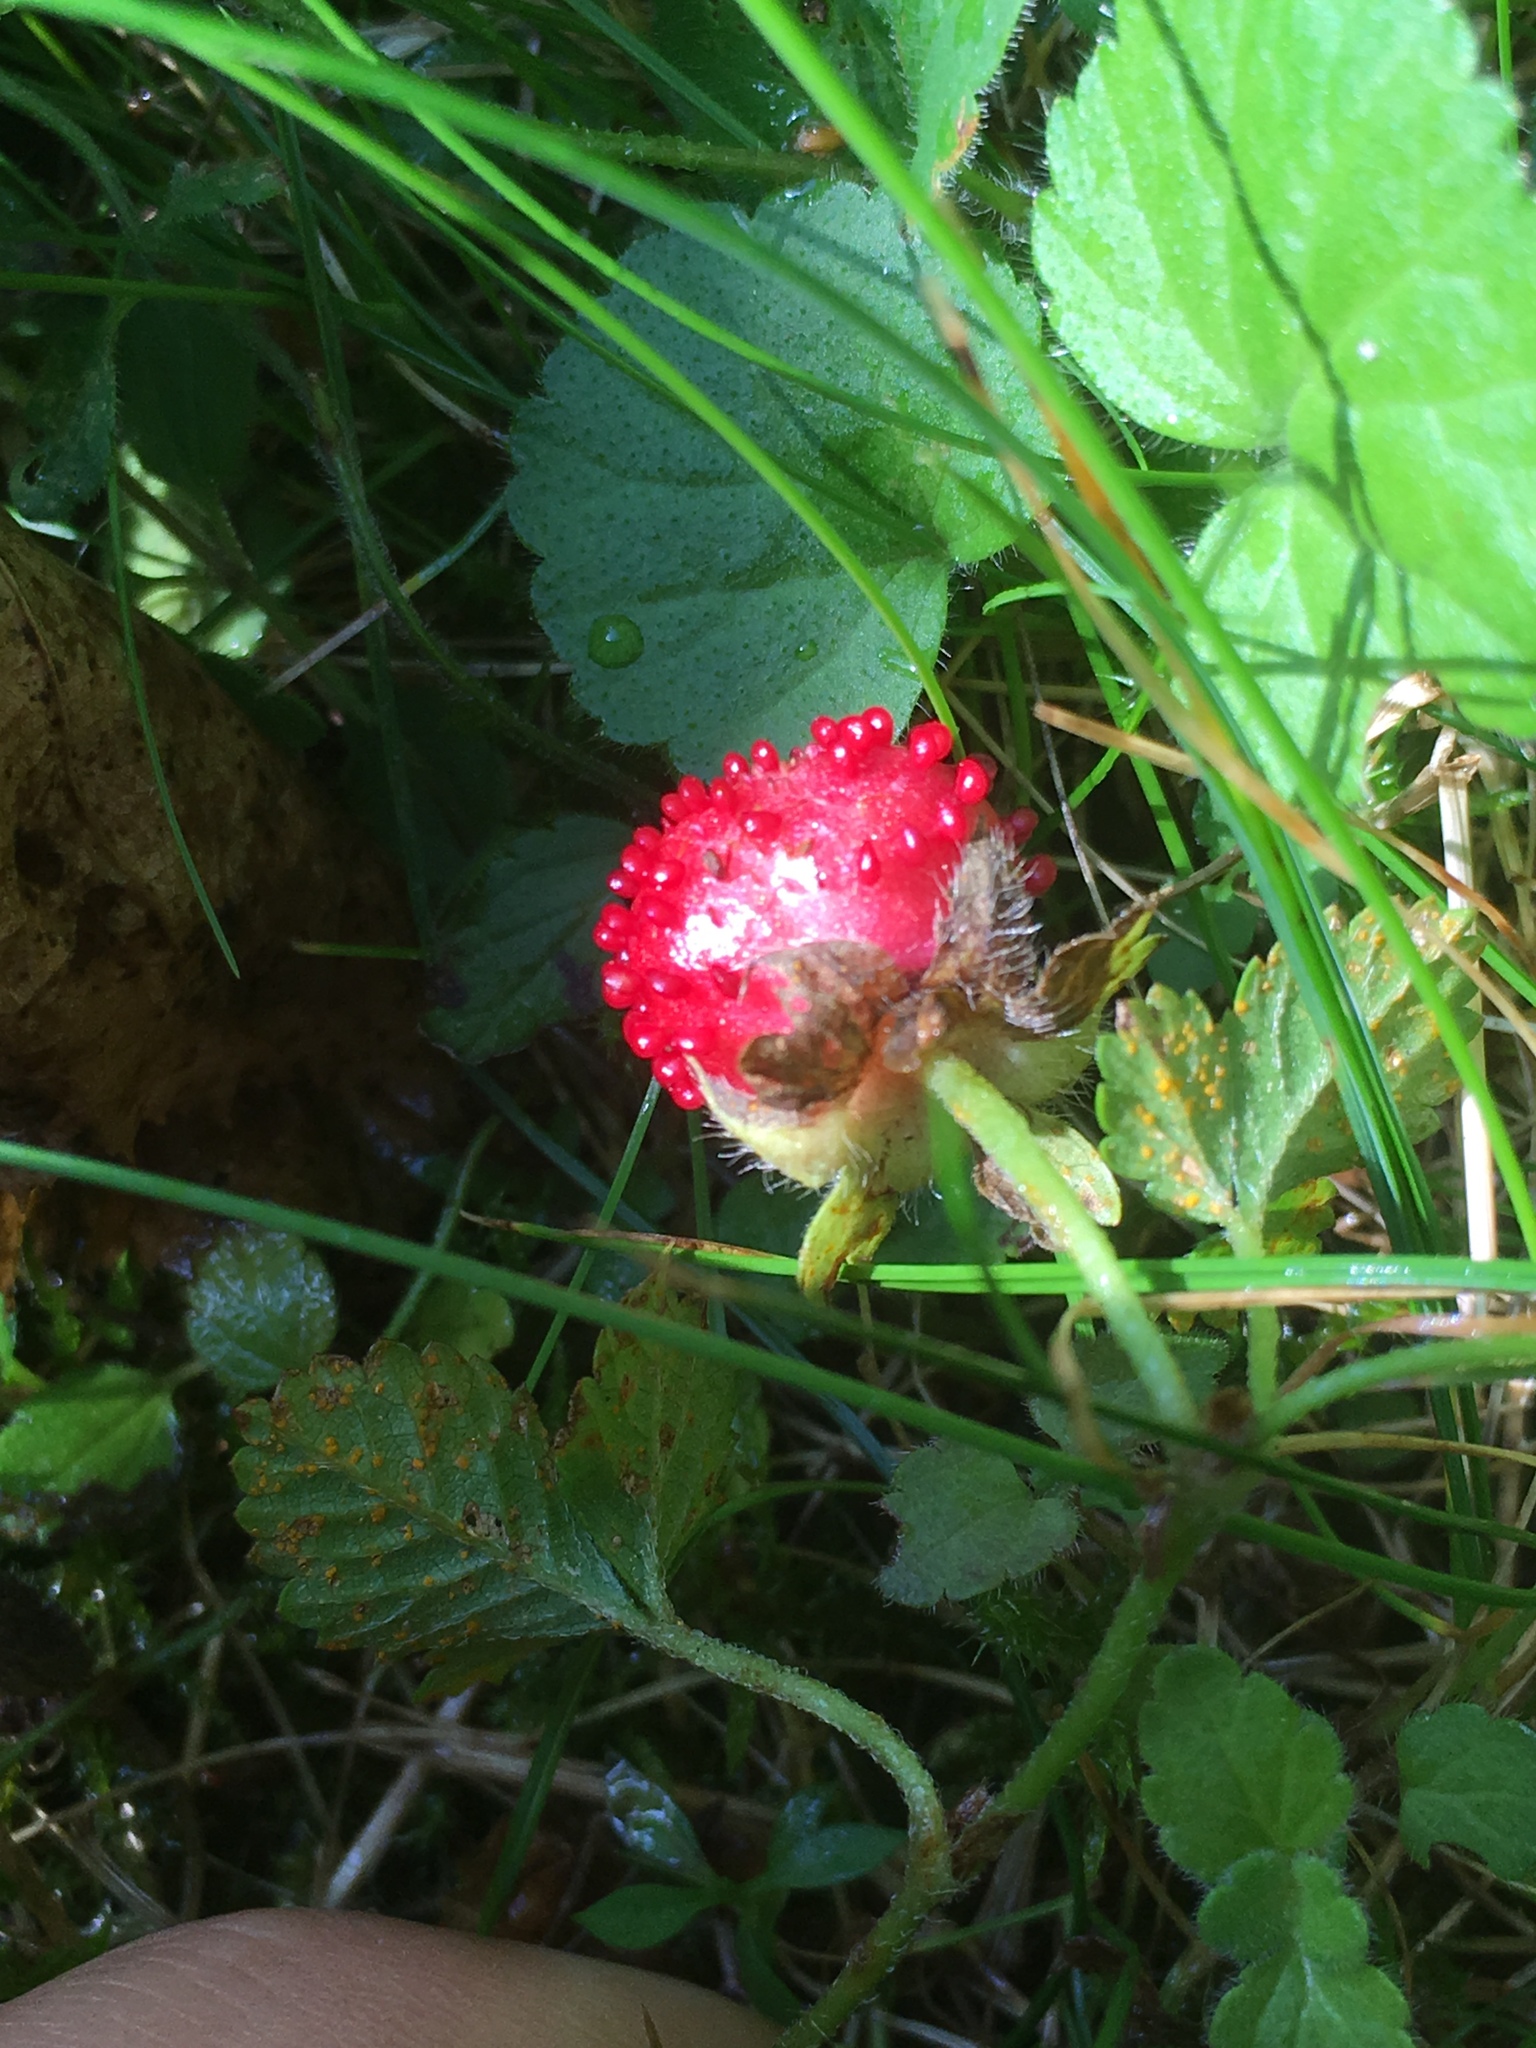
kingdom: Plantae
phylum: Tracheophyta
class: Magnoliopsida
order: Rosales
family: Rosaceae
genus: Potentilla
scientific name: Potentilla indica
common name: Yellow-flowered strawberry
